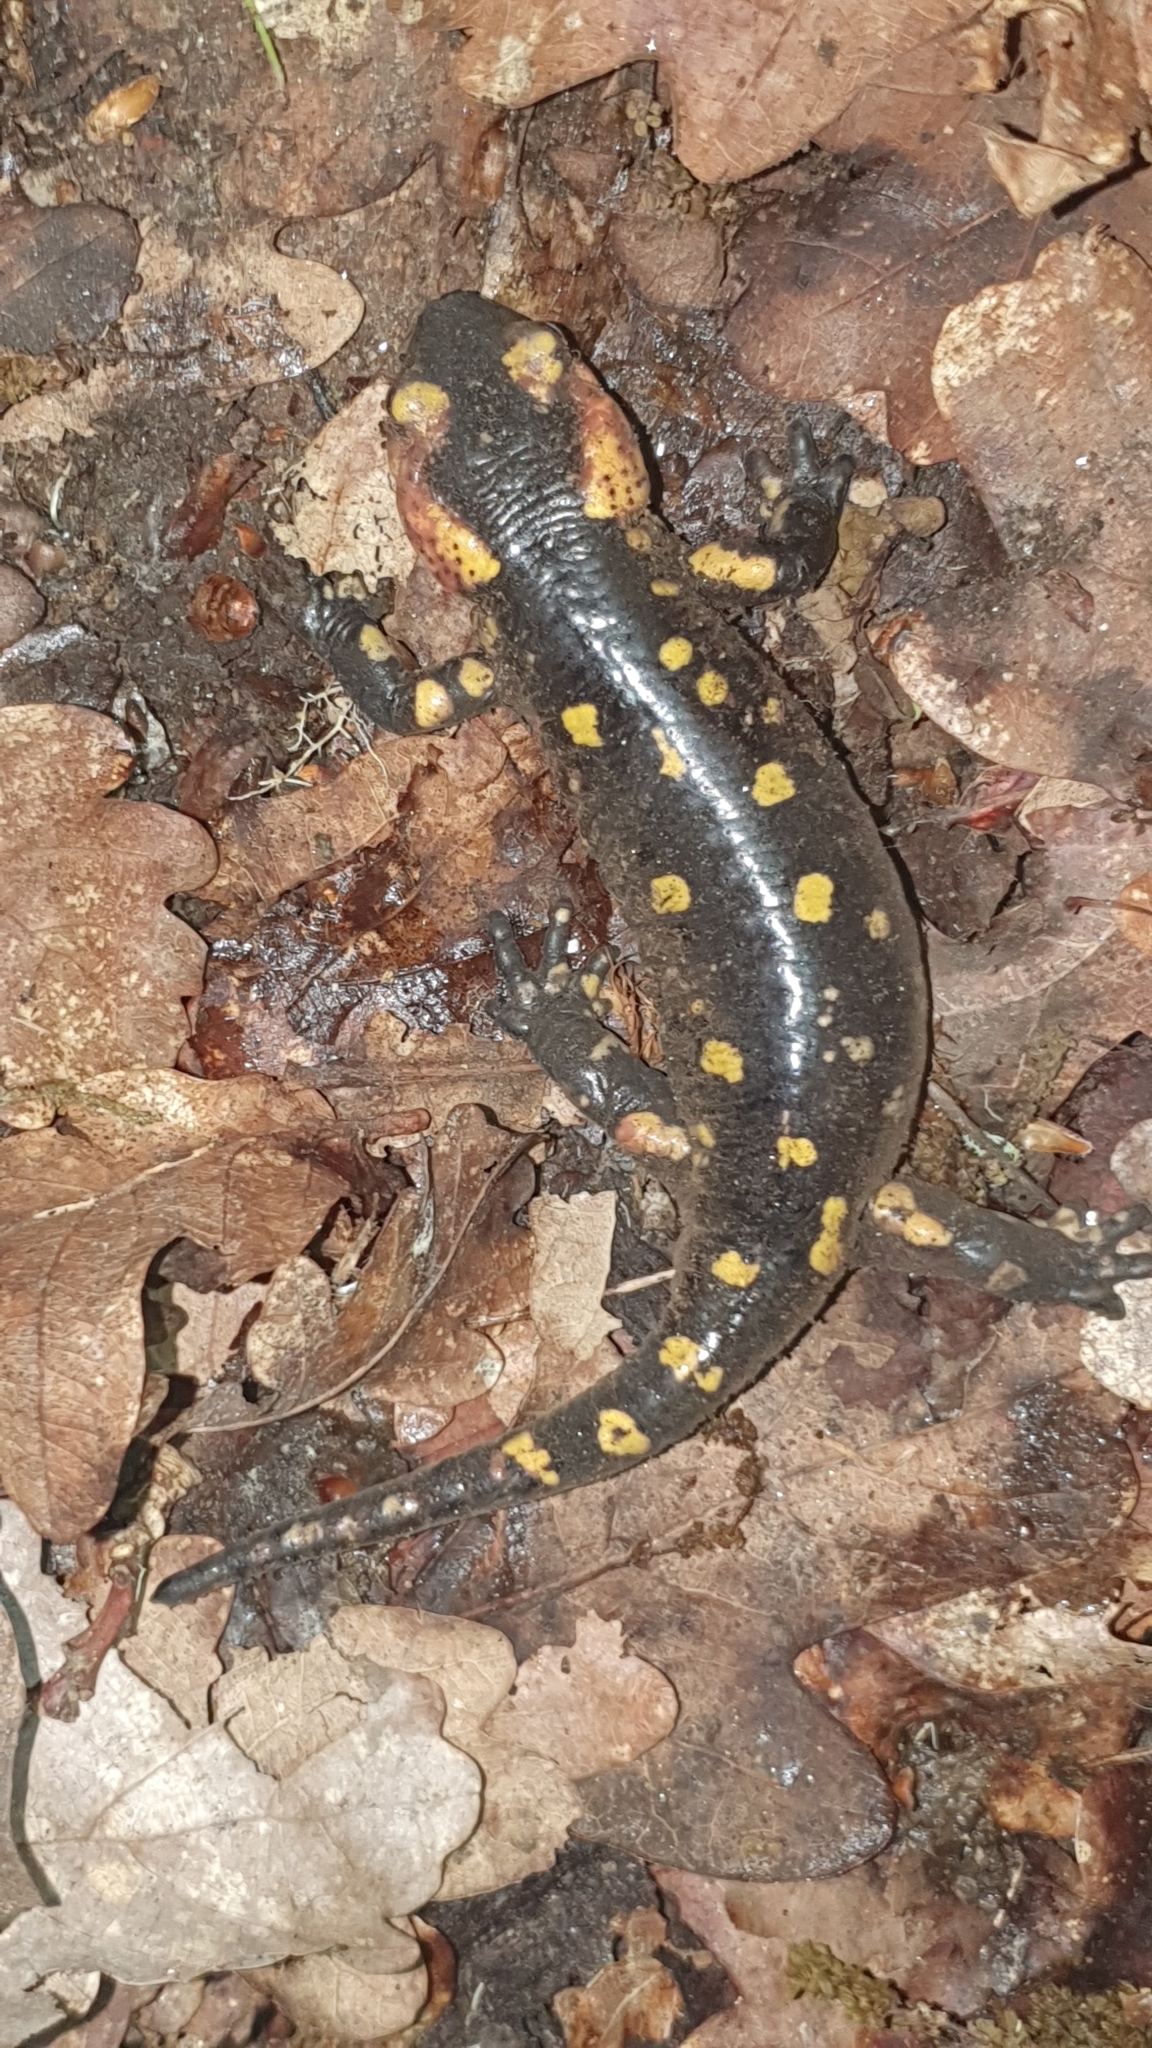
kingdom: Animalia
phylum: Chordata
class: Amphibia
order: Caudata
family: Salamandridae
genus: Salamandra
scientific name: Salamandra salamandra
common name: Fire salamander
